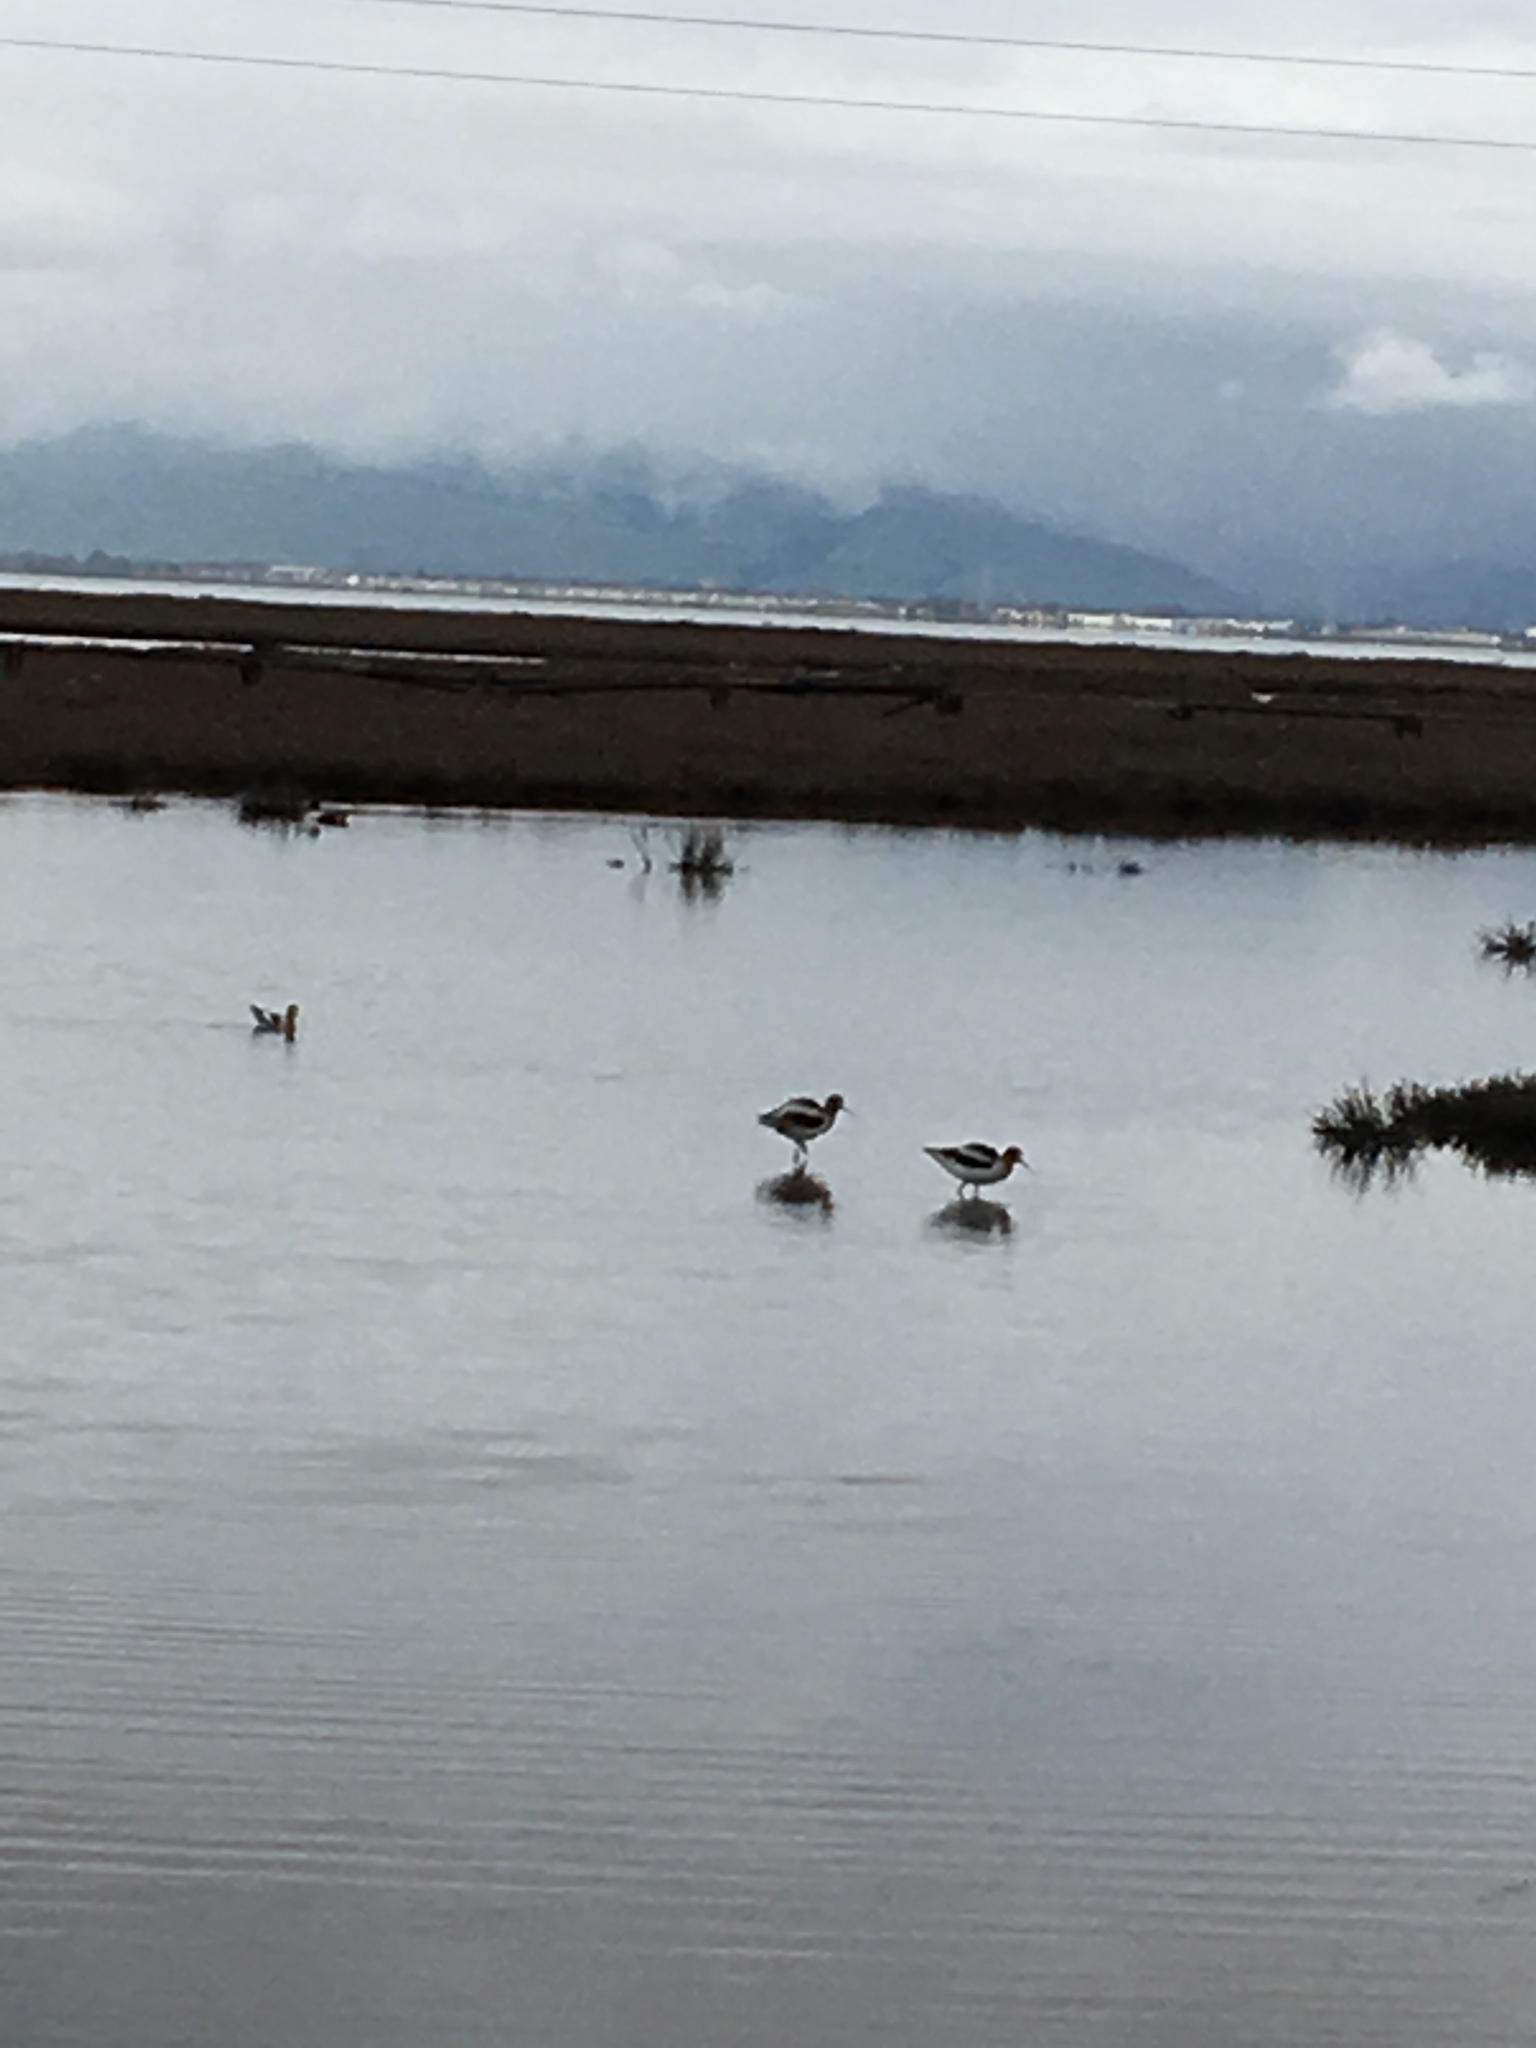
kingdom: Animalia
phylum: Chordata
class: Aves
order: Charadriiformes
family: Recurvirostridae
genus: Recurvirostra
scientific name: Recurvirostra americana
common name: American avocet
